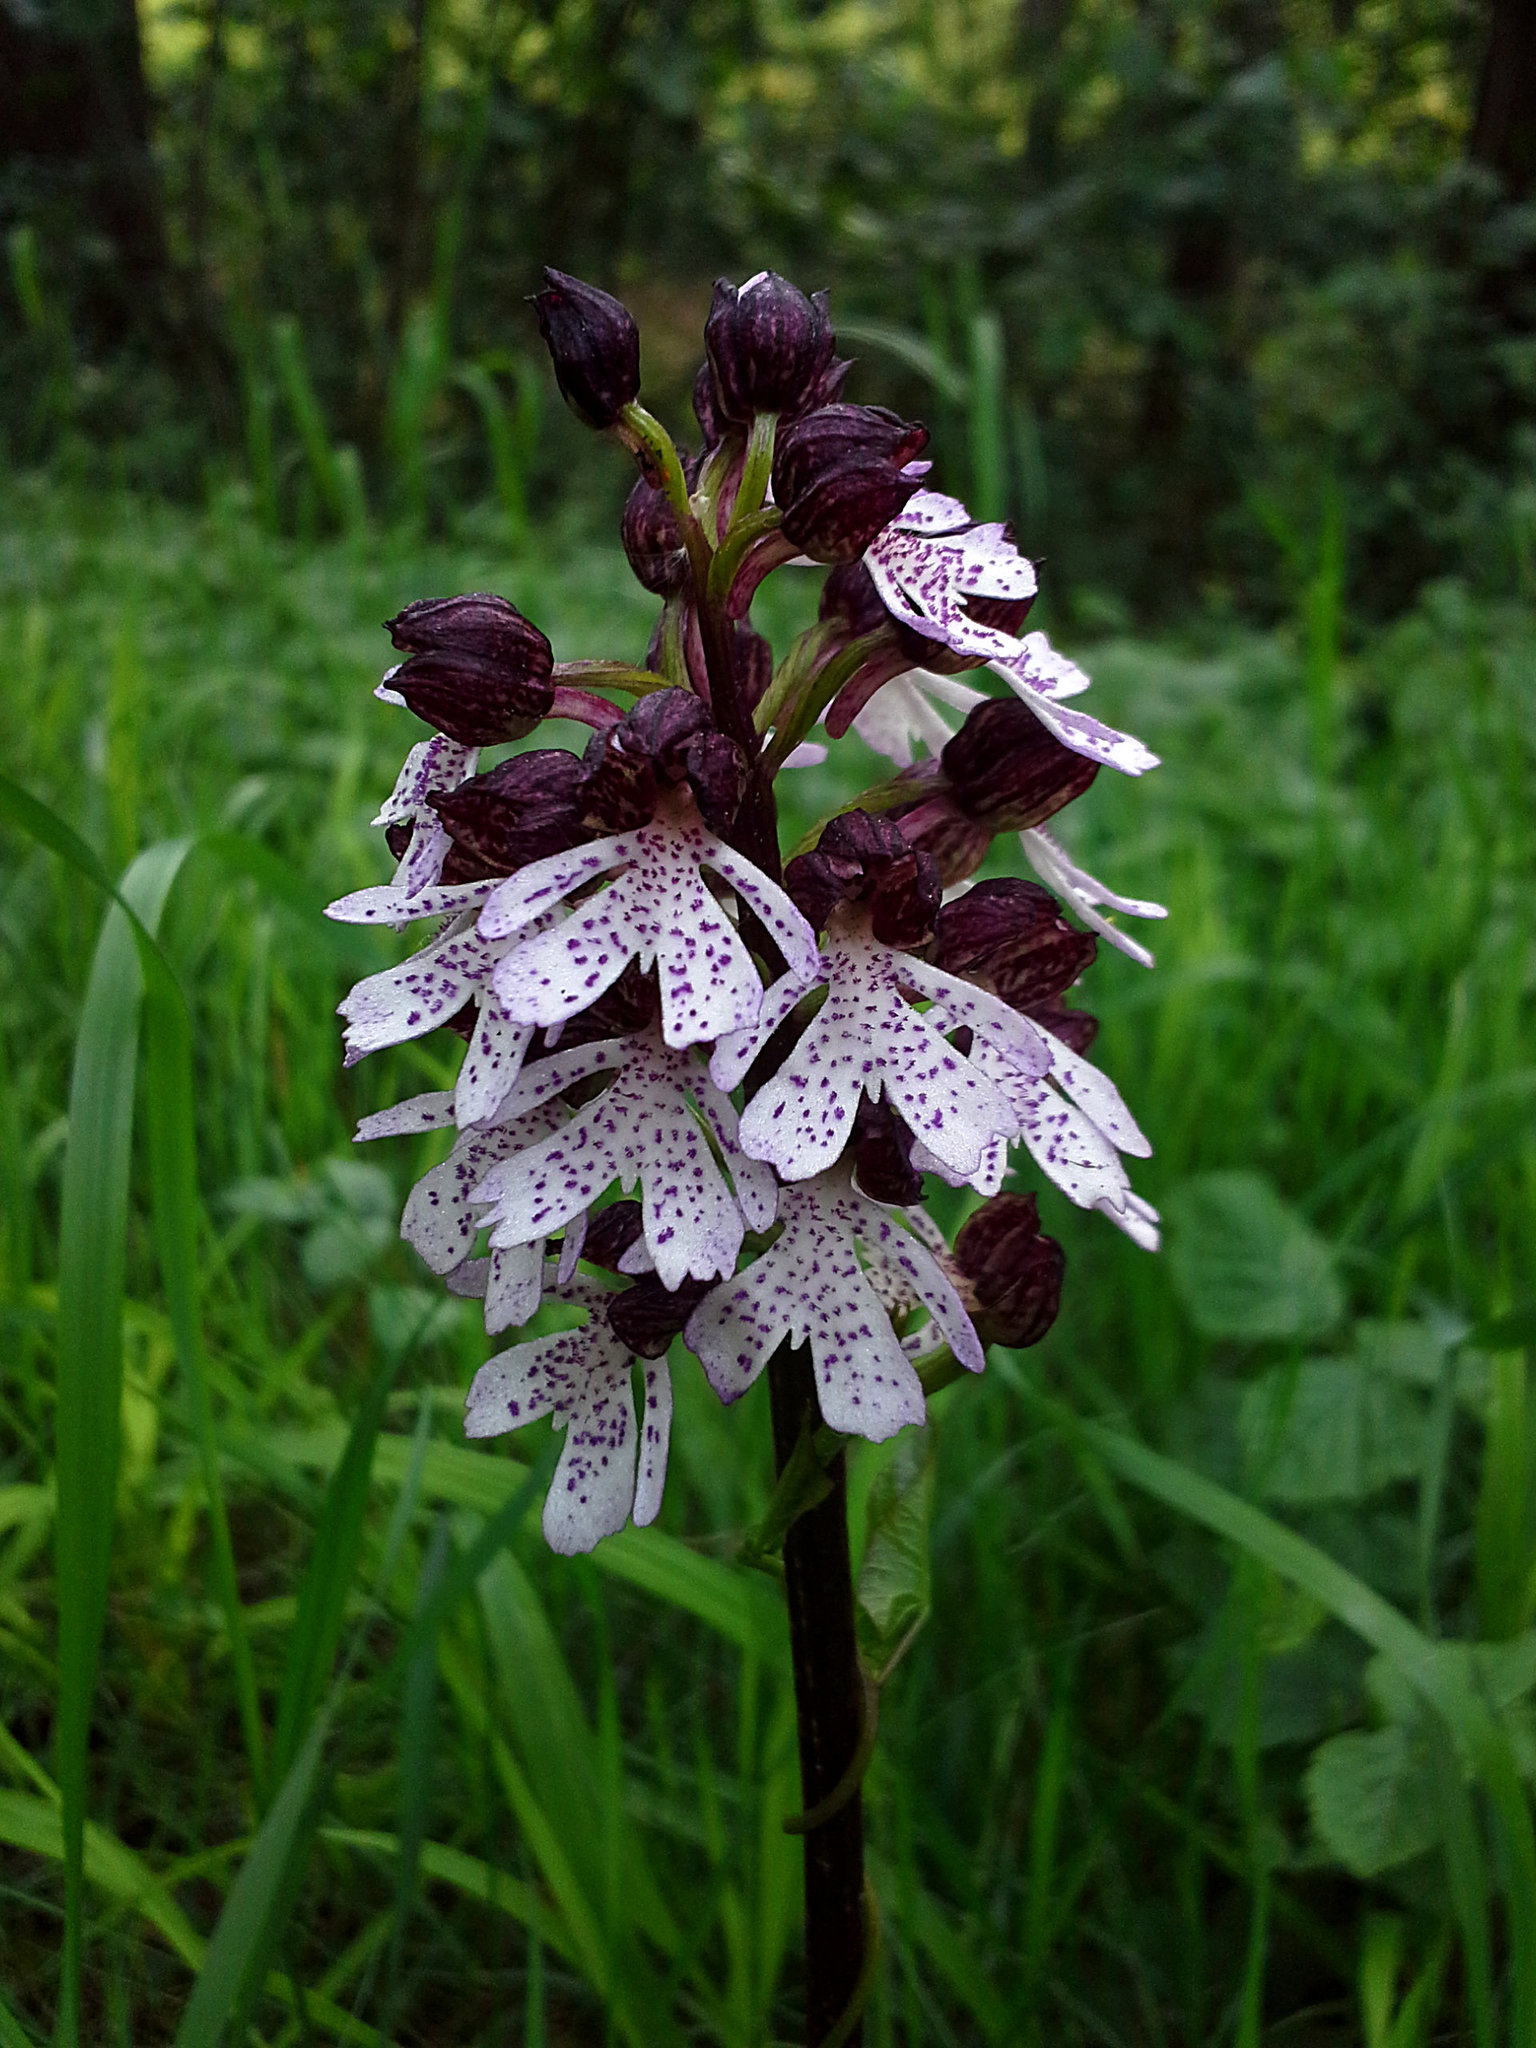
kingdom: Plantae
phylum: Tracheophyta
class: Liliopsida
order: Asparagales
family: Orchidaceae
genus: Orchis
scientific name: Orchis purpurea
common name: Lady orchid
